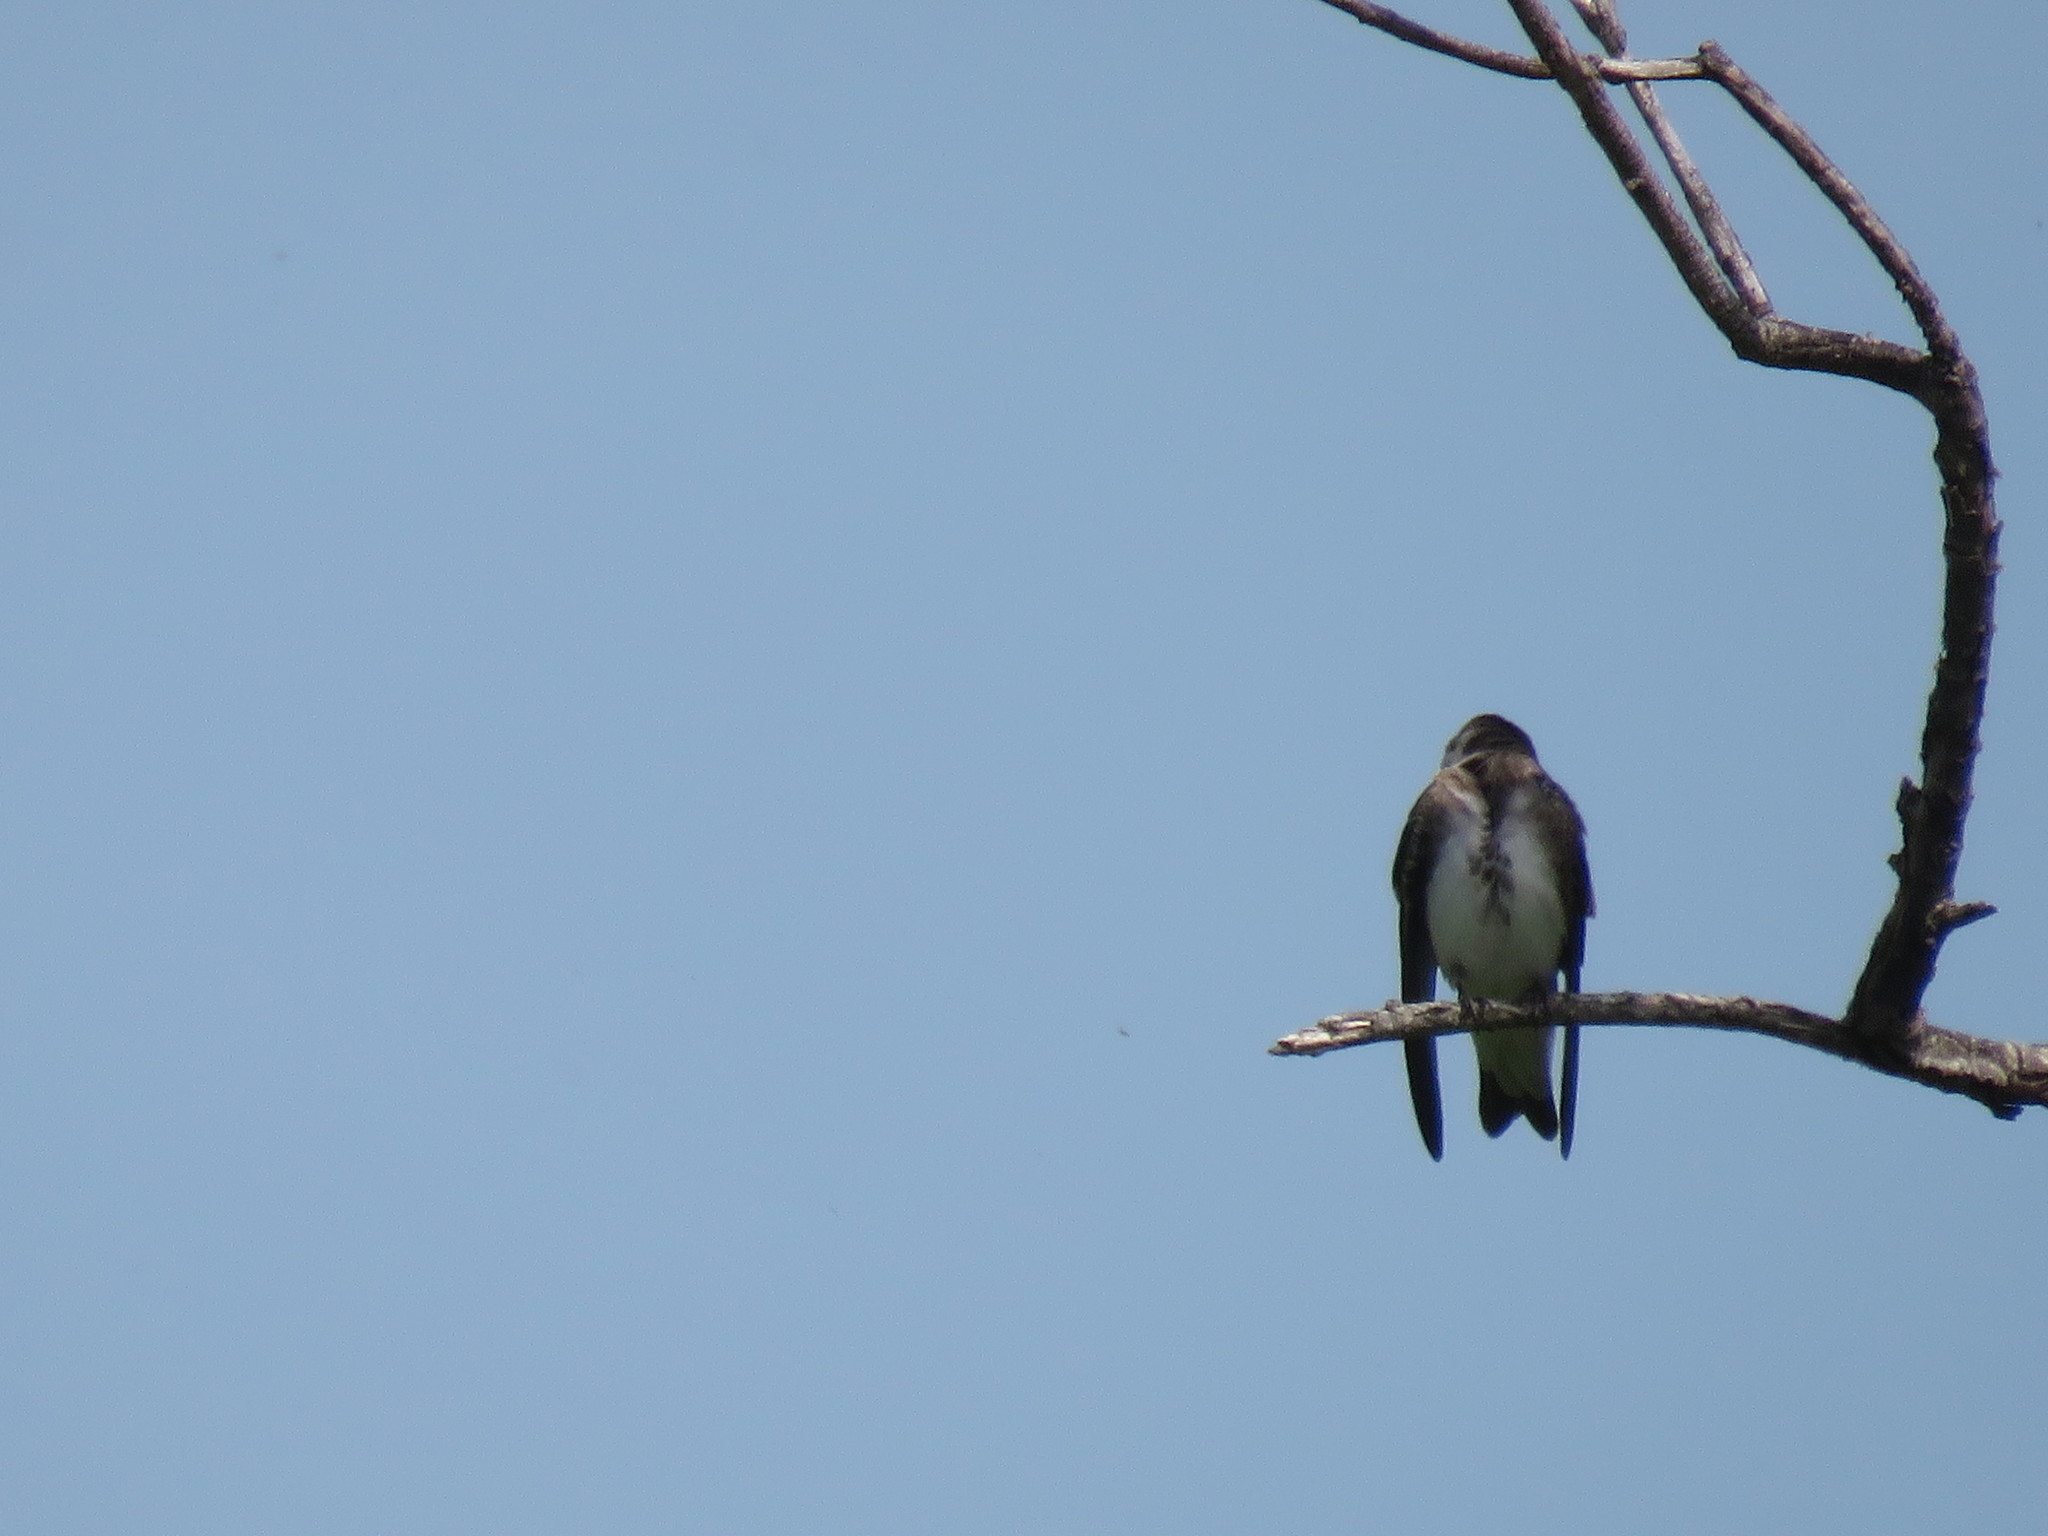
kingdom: Animalia
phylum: Chordata
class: Aves
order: Passeriformes
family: Hirundinidae
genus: Progne
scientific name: Progne tapera
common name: Brown-chested martin
